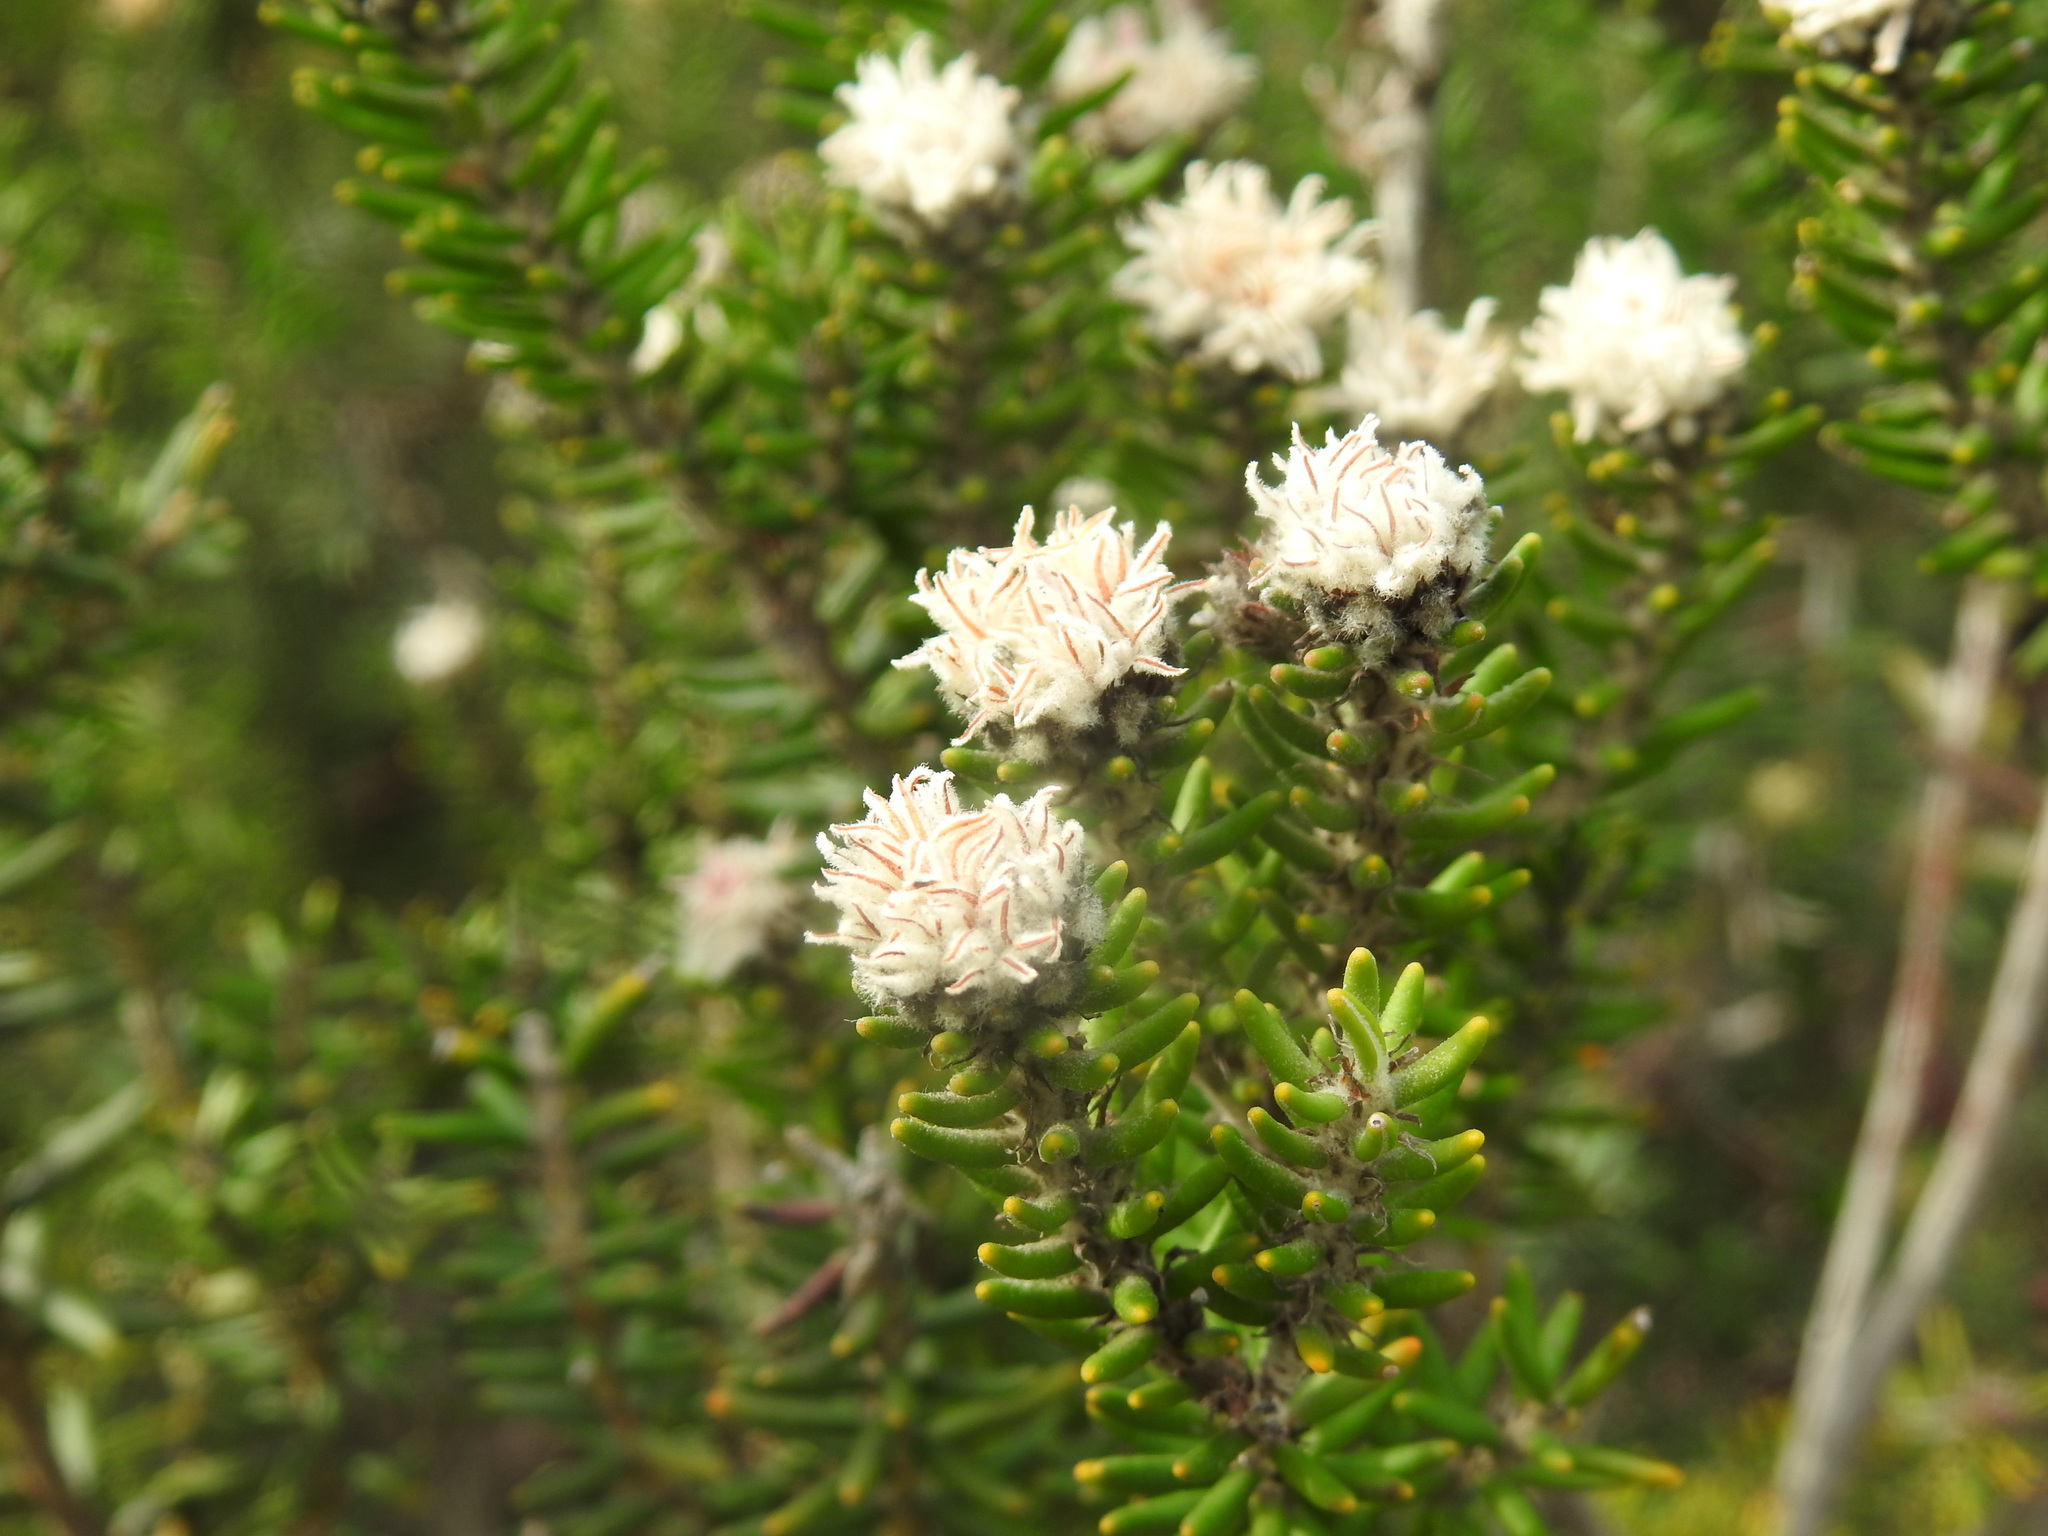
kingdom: Plantae
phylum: Tracheophyta
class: Magnoliopsida
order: Rosales
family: Rhamnaceae
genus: Trichocephalus
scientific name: Trichocephalus stipularis
